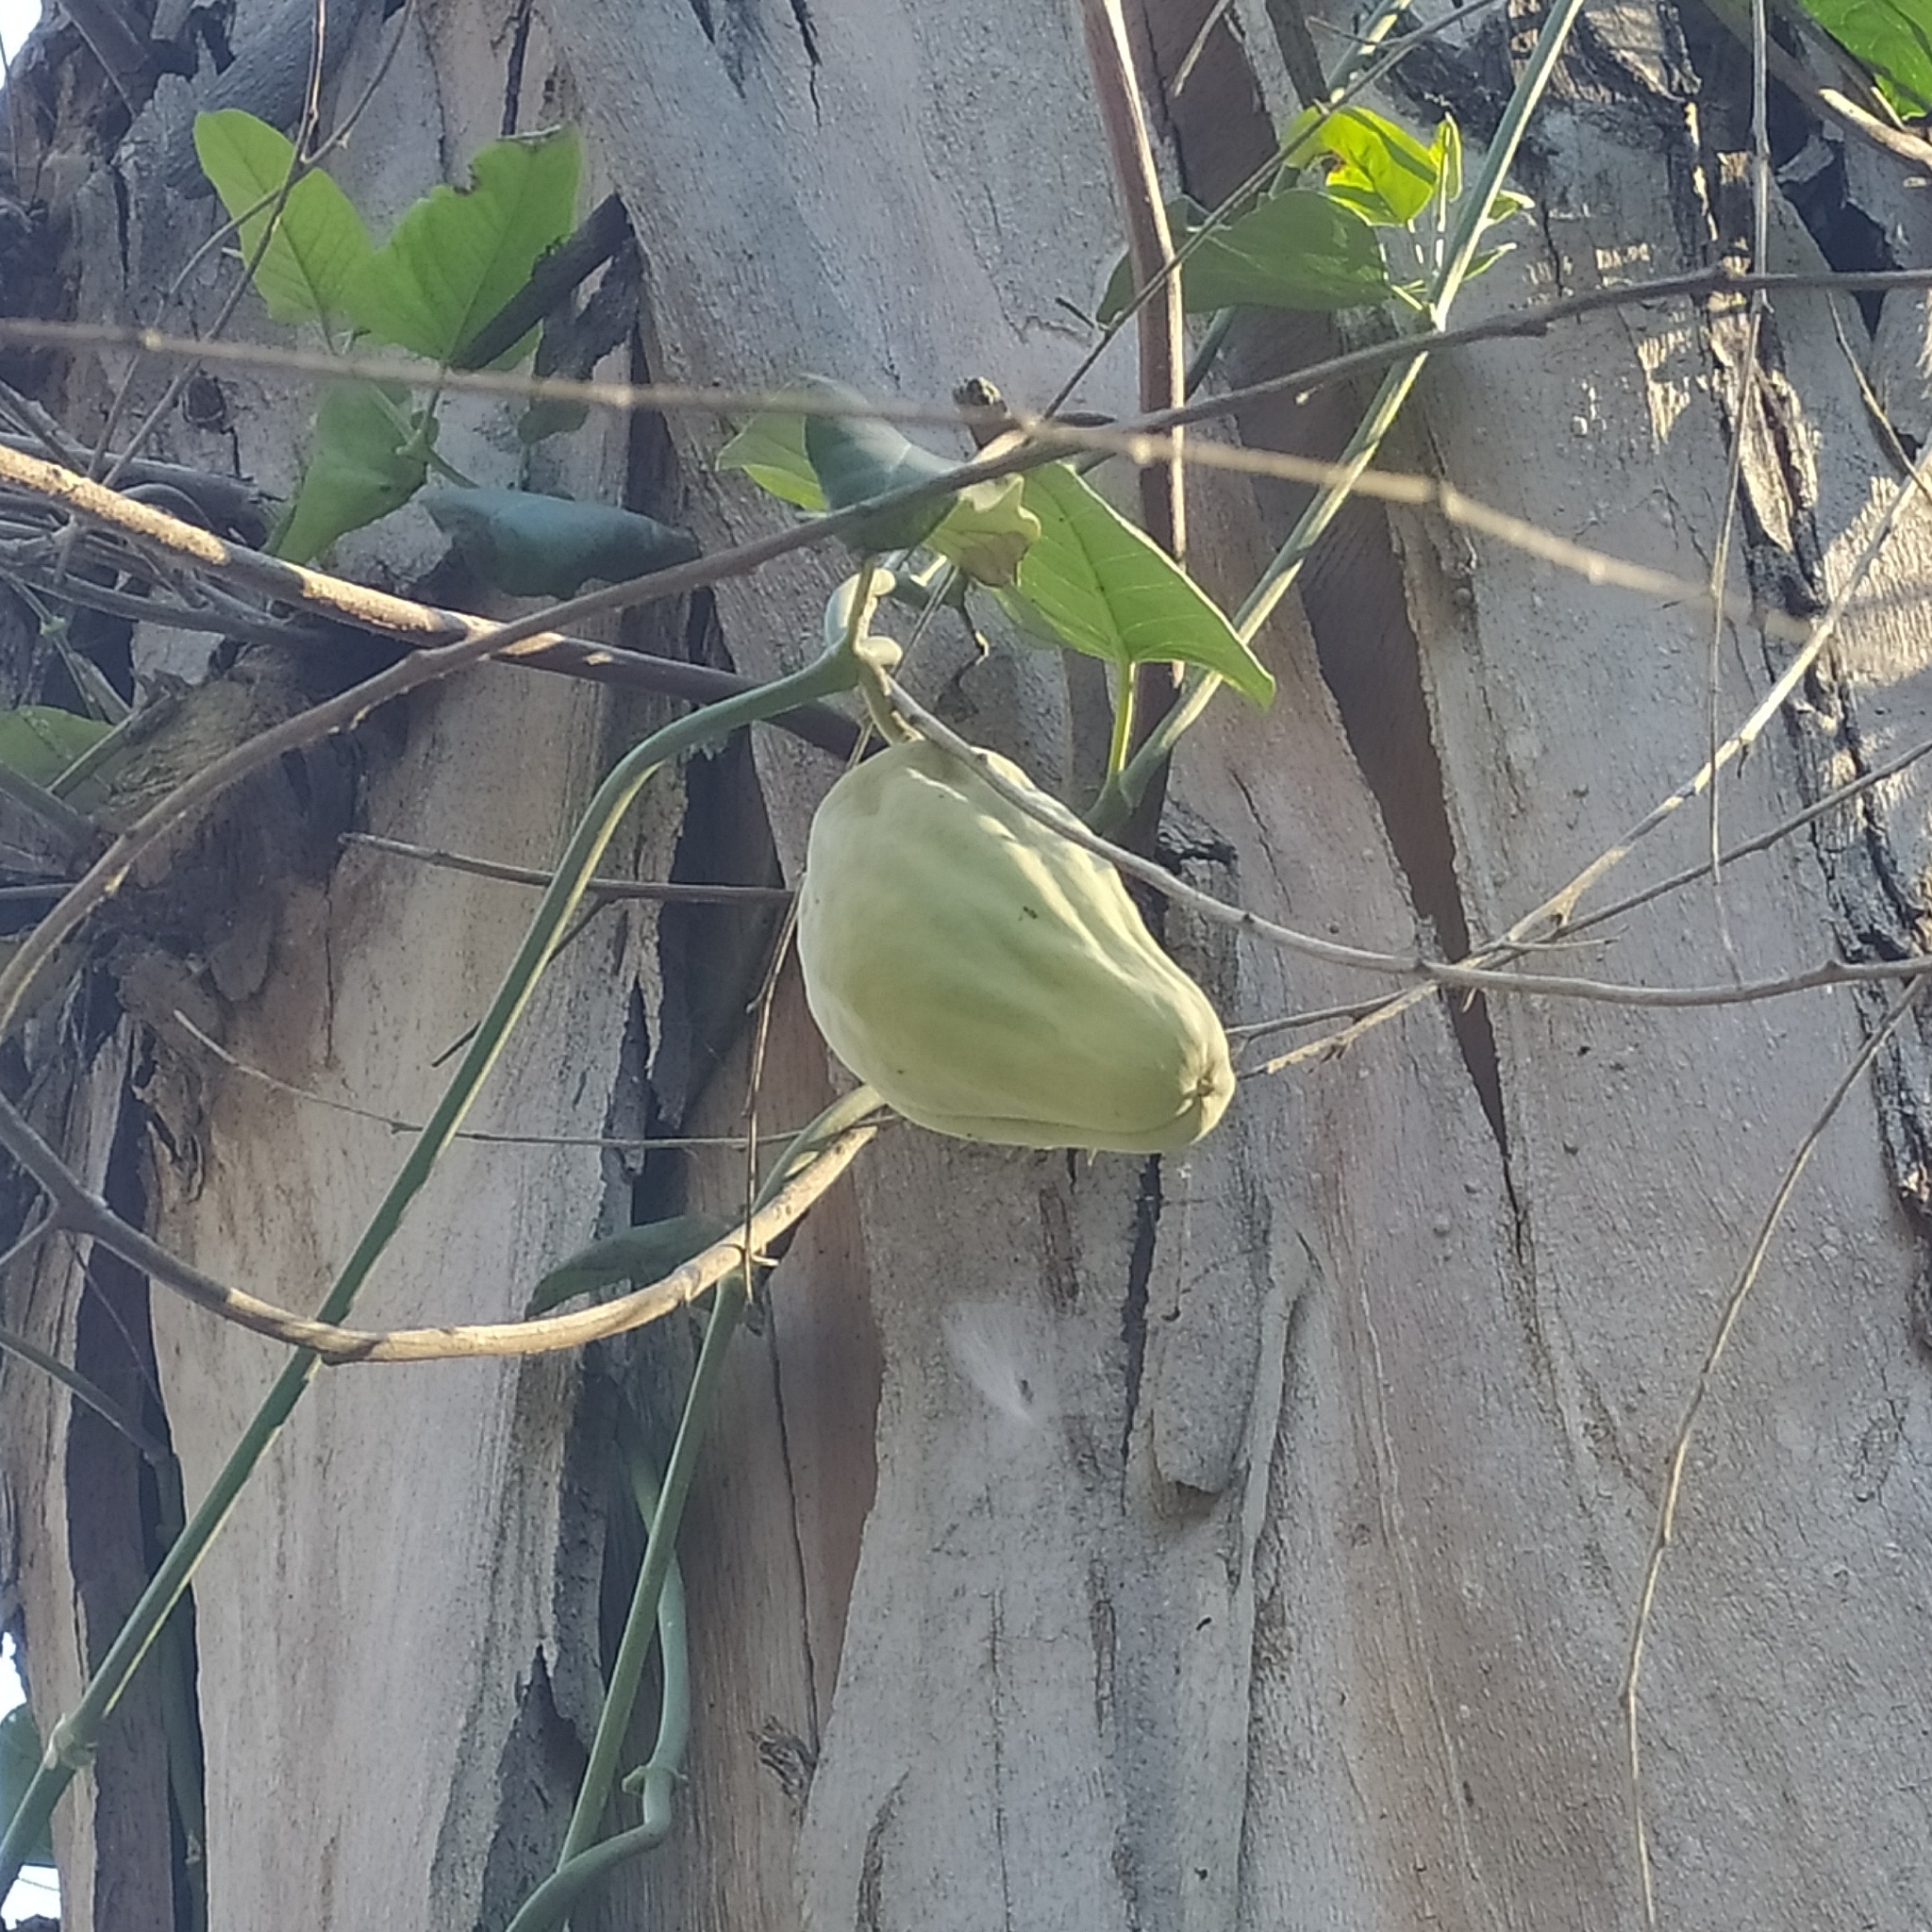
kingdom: Plantae
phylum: Tracheophyta
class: Magnoliopsida
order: Gentianales
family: Apocynaceae
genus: Araujia
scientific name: Araujia sericifera
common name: White bladderflower
